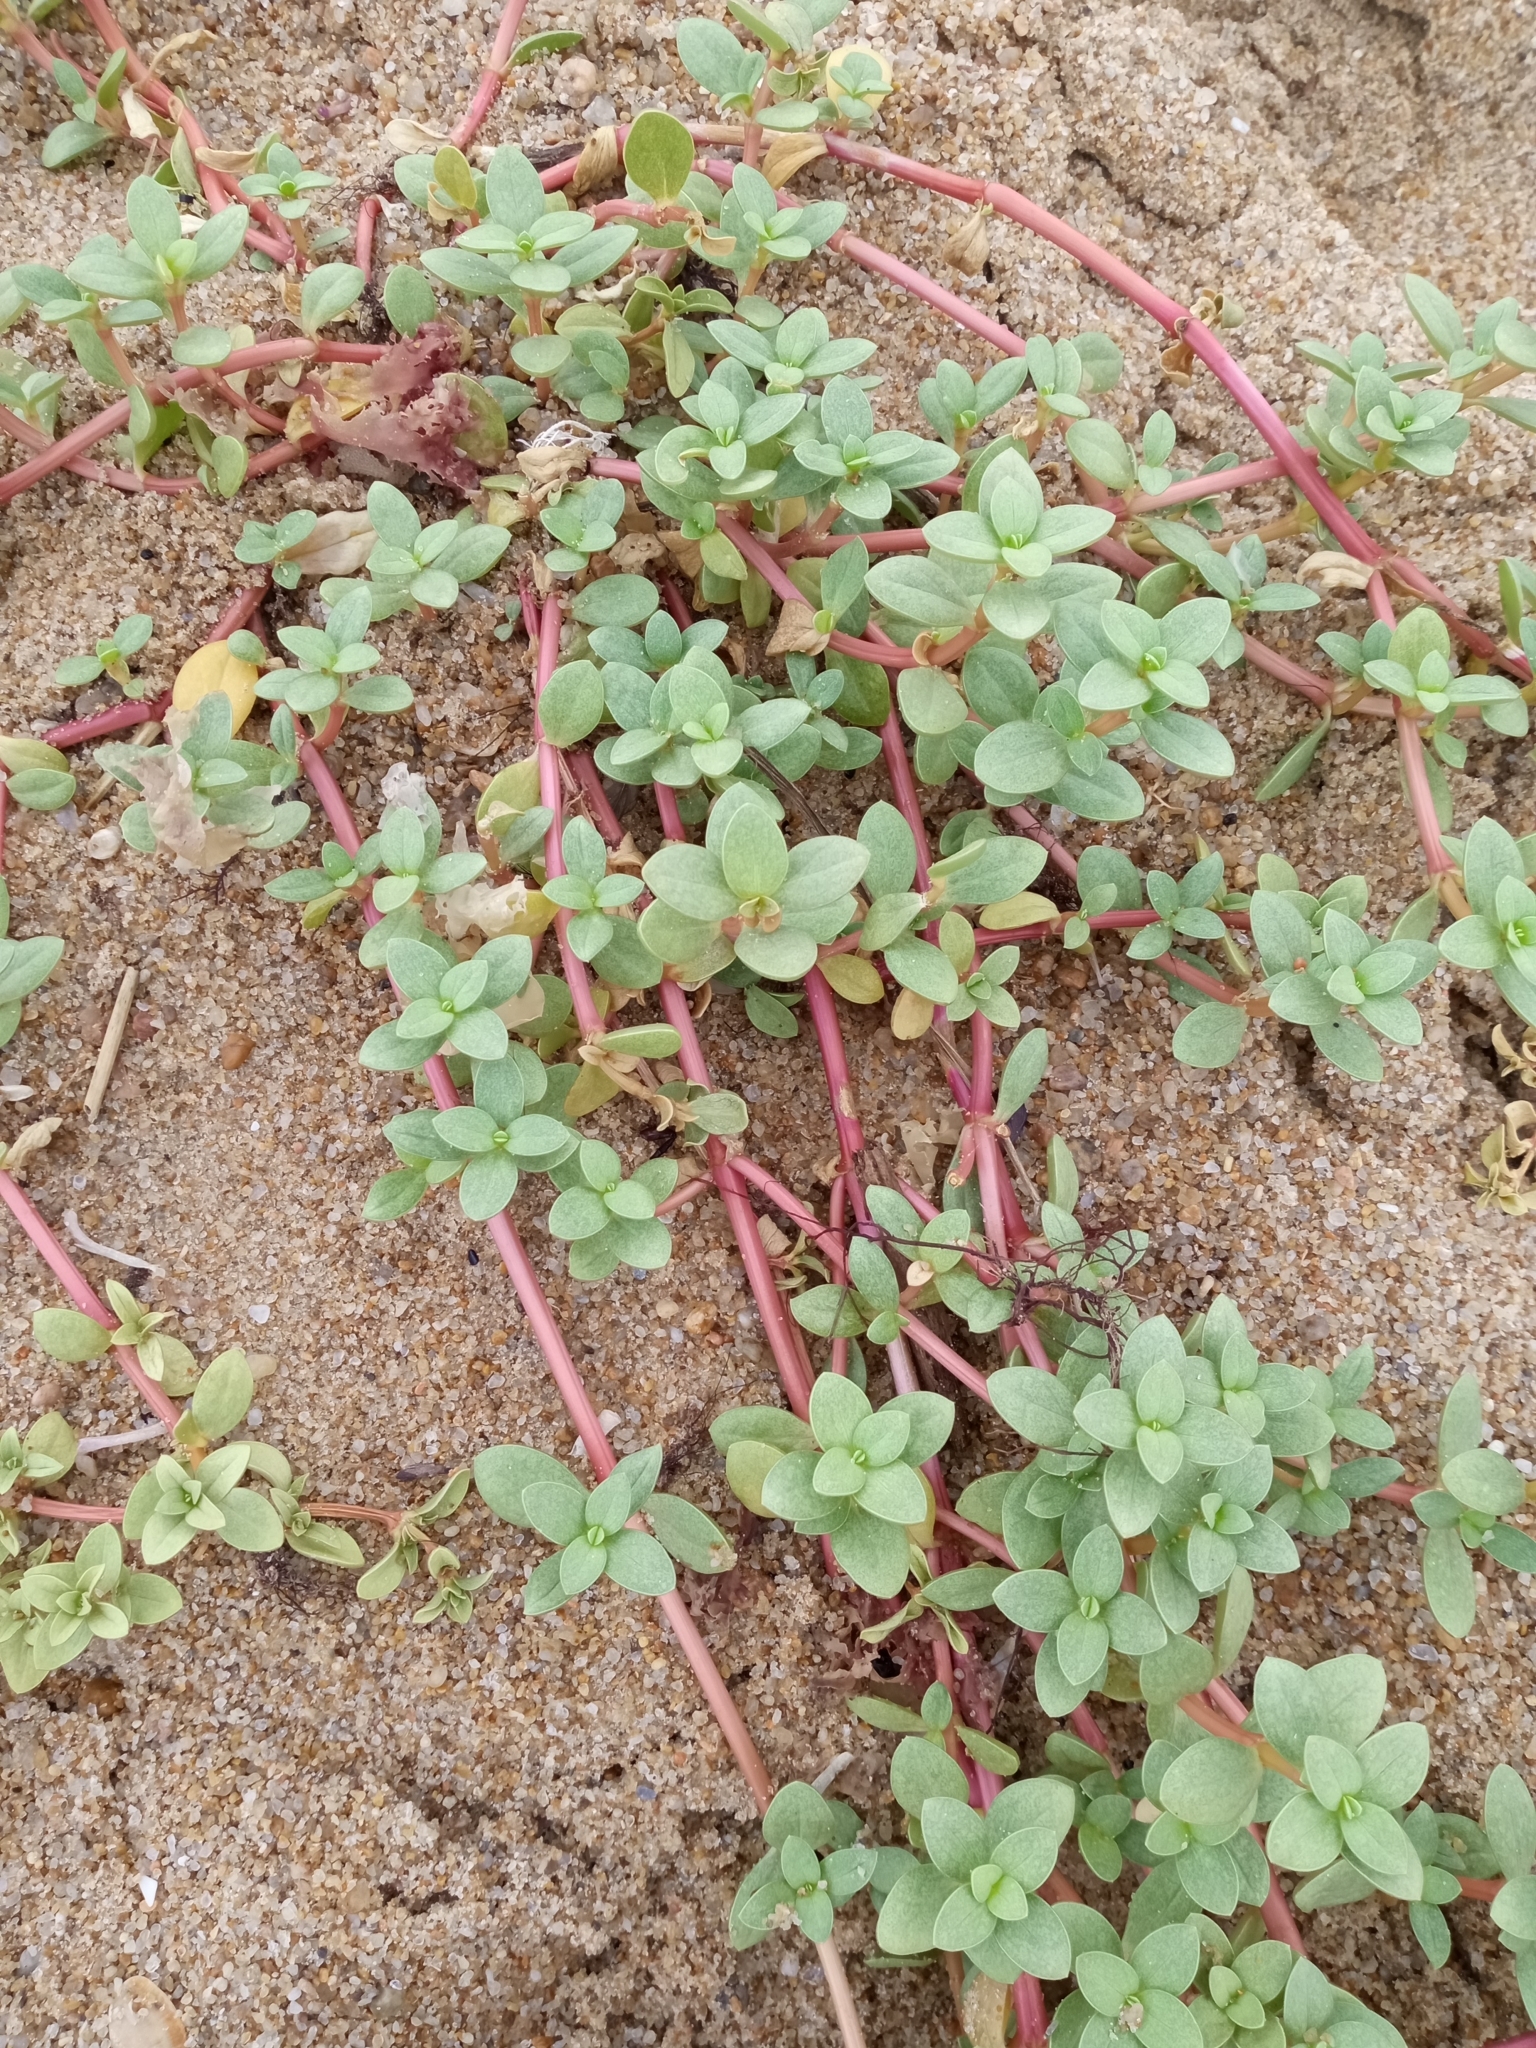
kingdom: Plantae
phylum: Tracheophyta
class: Magnoliopsida
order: Caryophyllales
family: Amaranthaceae
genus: Gomphrena
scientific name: Gomphrena portulacoides
